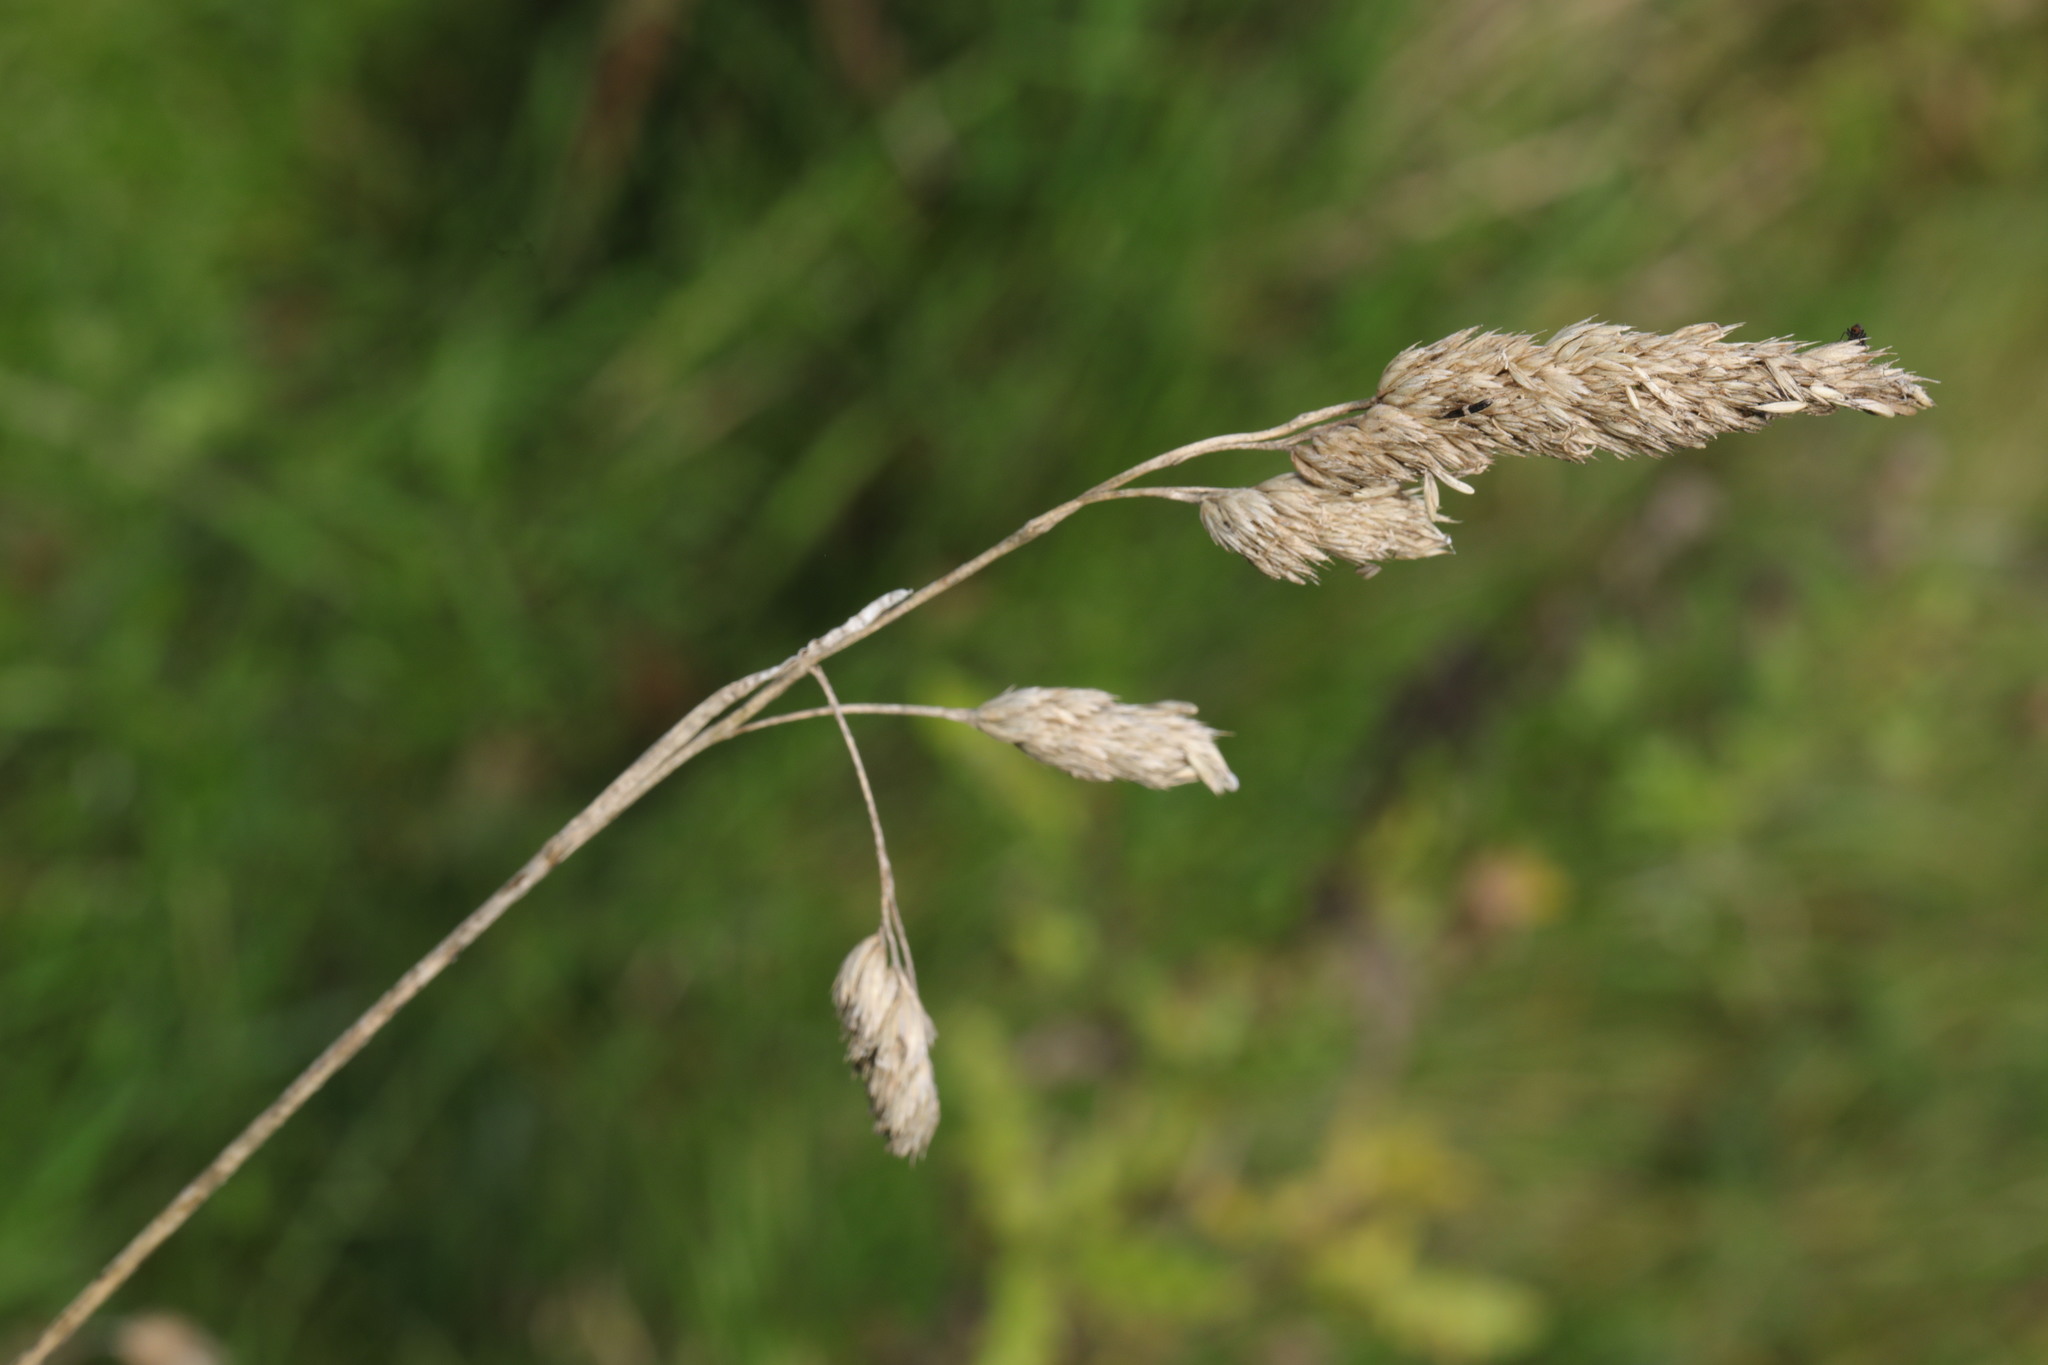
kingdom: Plantae
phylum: Tracheophyta
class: Liliopsida
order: Poales
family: Poaceae
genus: Dactylis
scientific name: Dactylis glomerata
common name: Orchardgrass
